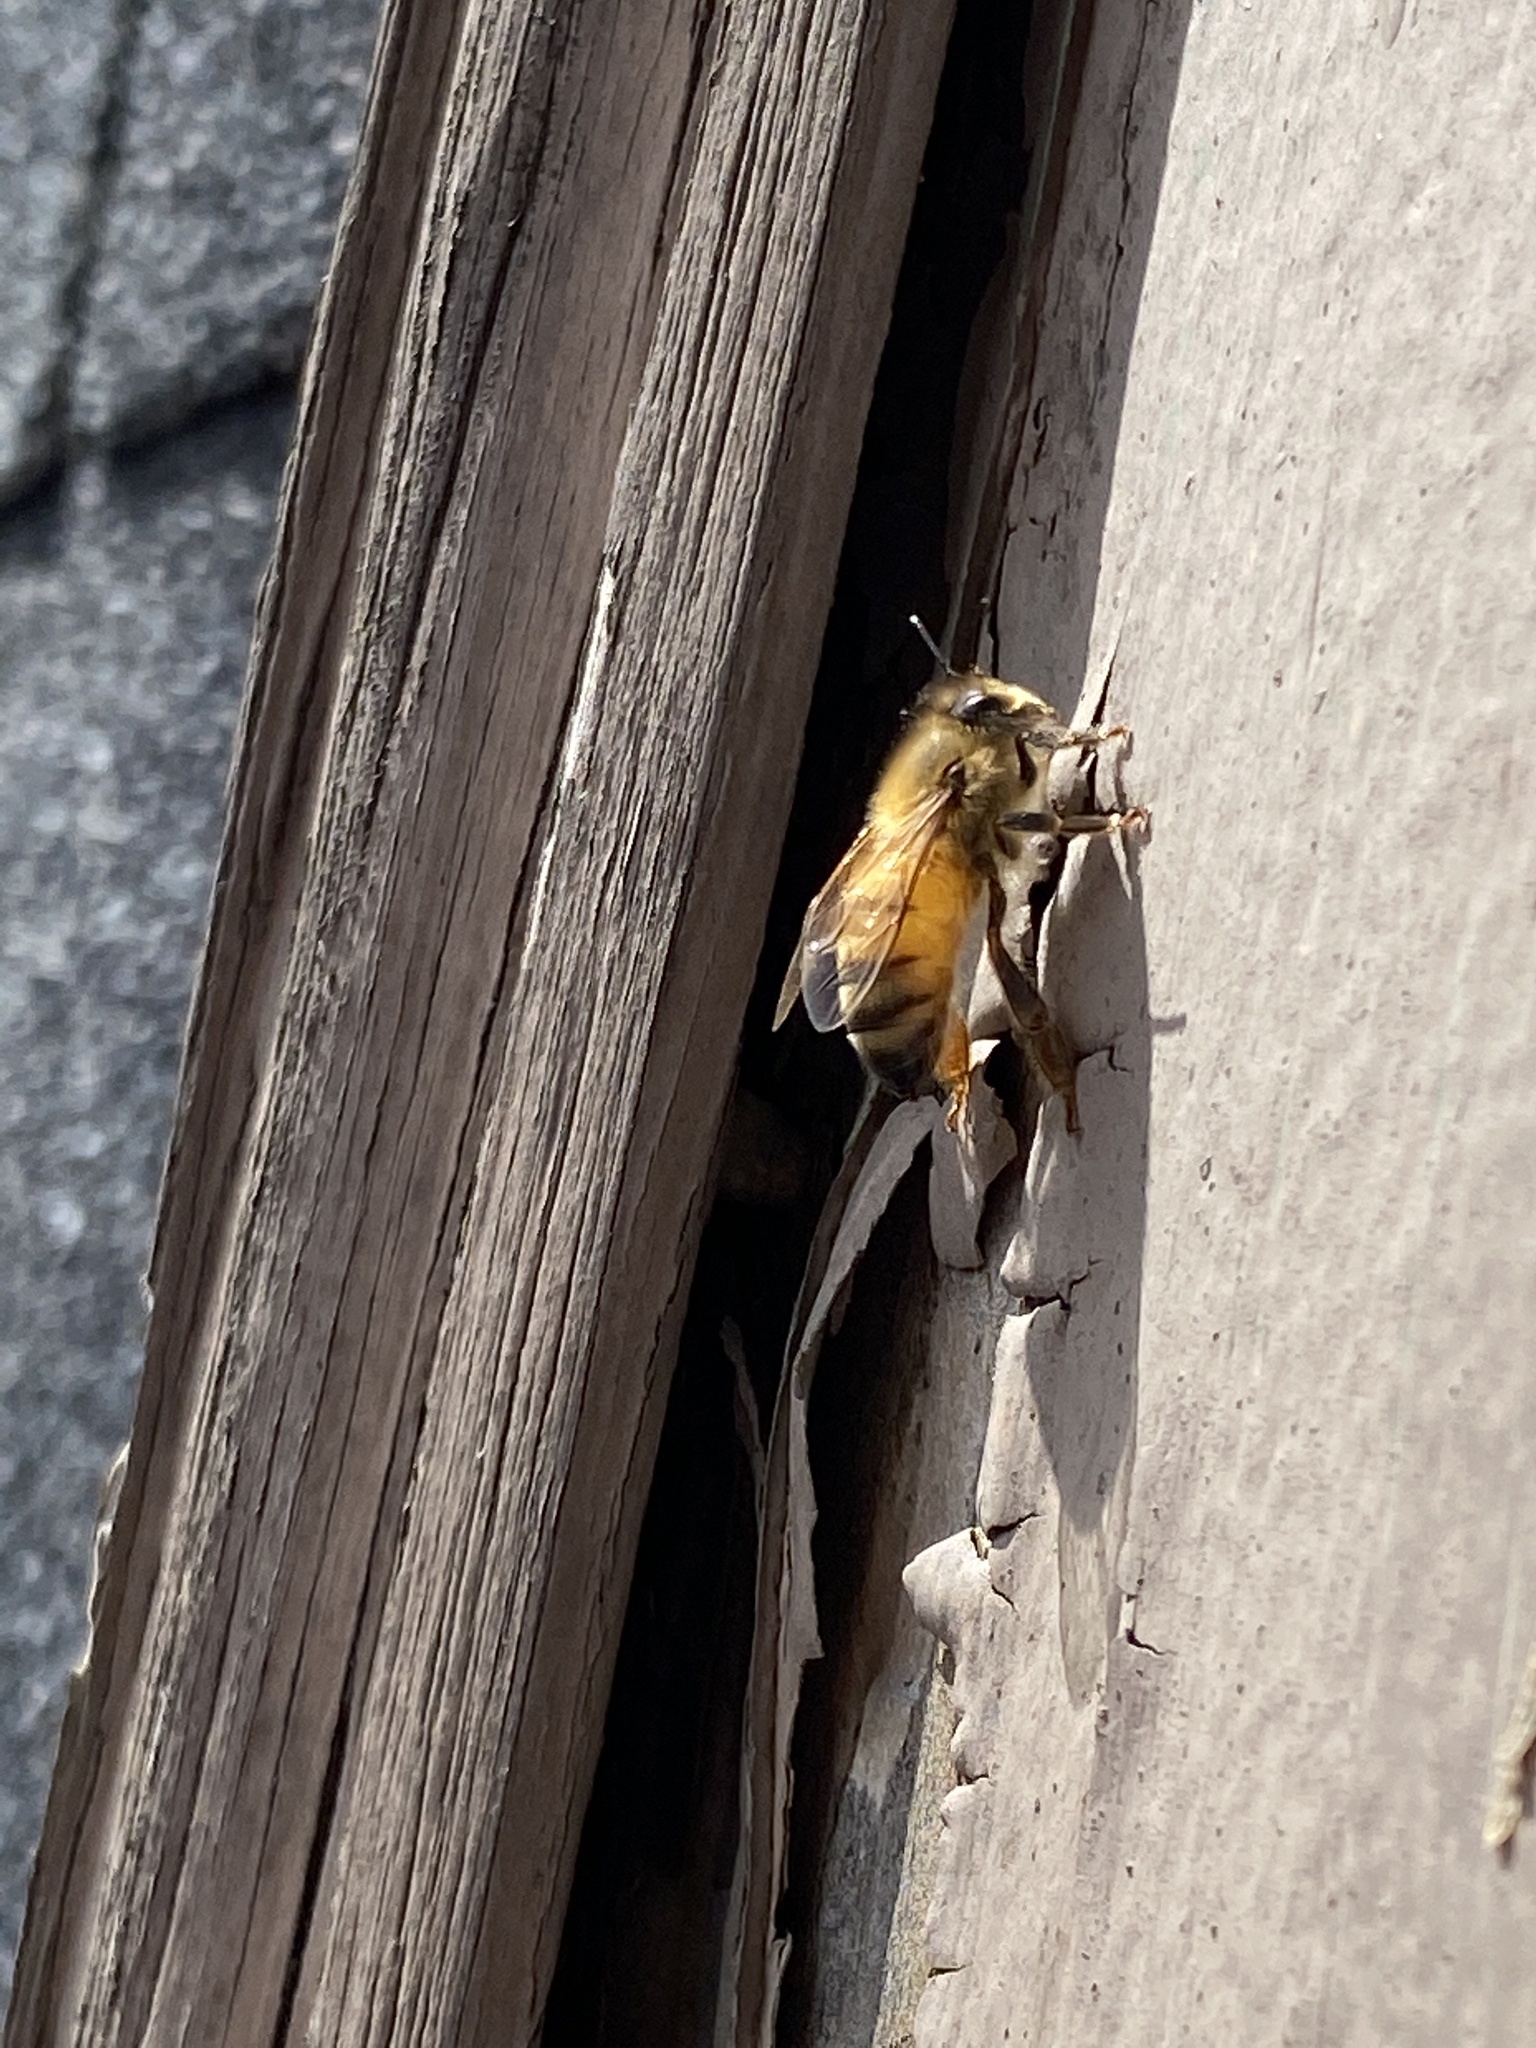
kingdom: Animalia
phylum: Arthropoda
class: Insecta
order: Hymenoptera
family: Apidae
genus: Apis
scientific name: Apis mellifera
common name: Honey bee
